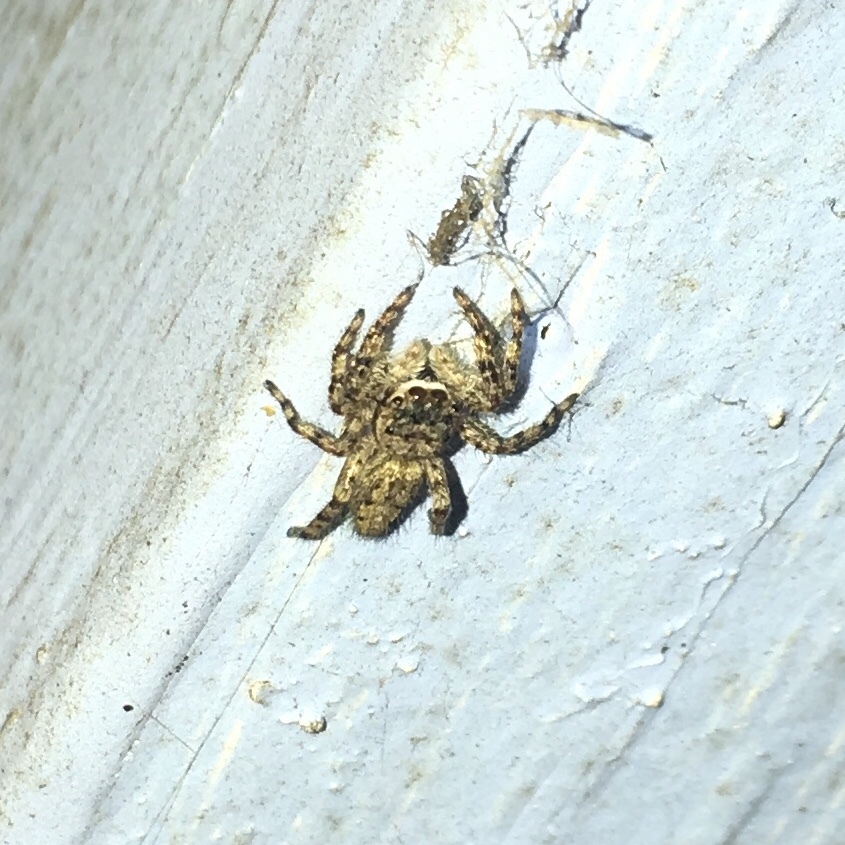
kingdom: Animalia
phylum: Arthropoda
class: Arachnida
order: Araneae
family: Salticidae
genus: Platycryptus
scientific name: Platycryptus undatus
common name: Tan jumping spider
